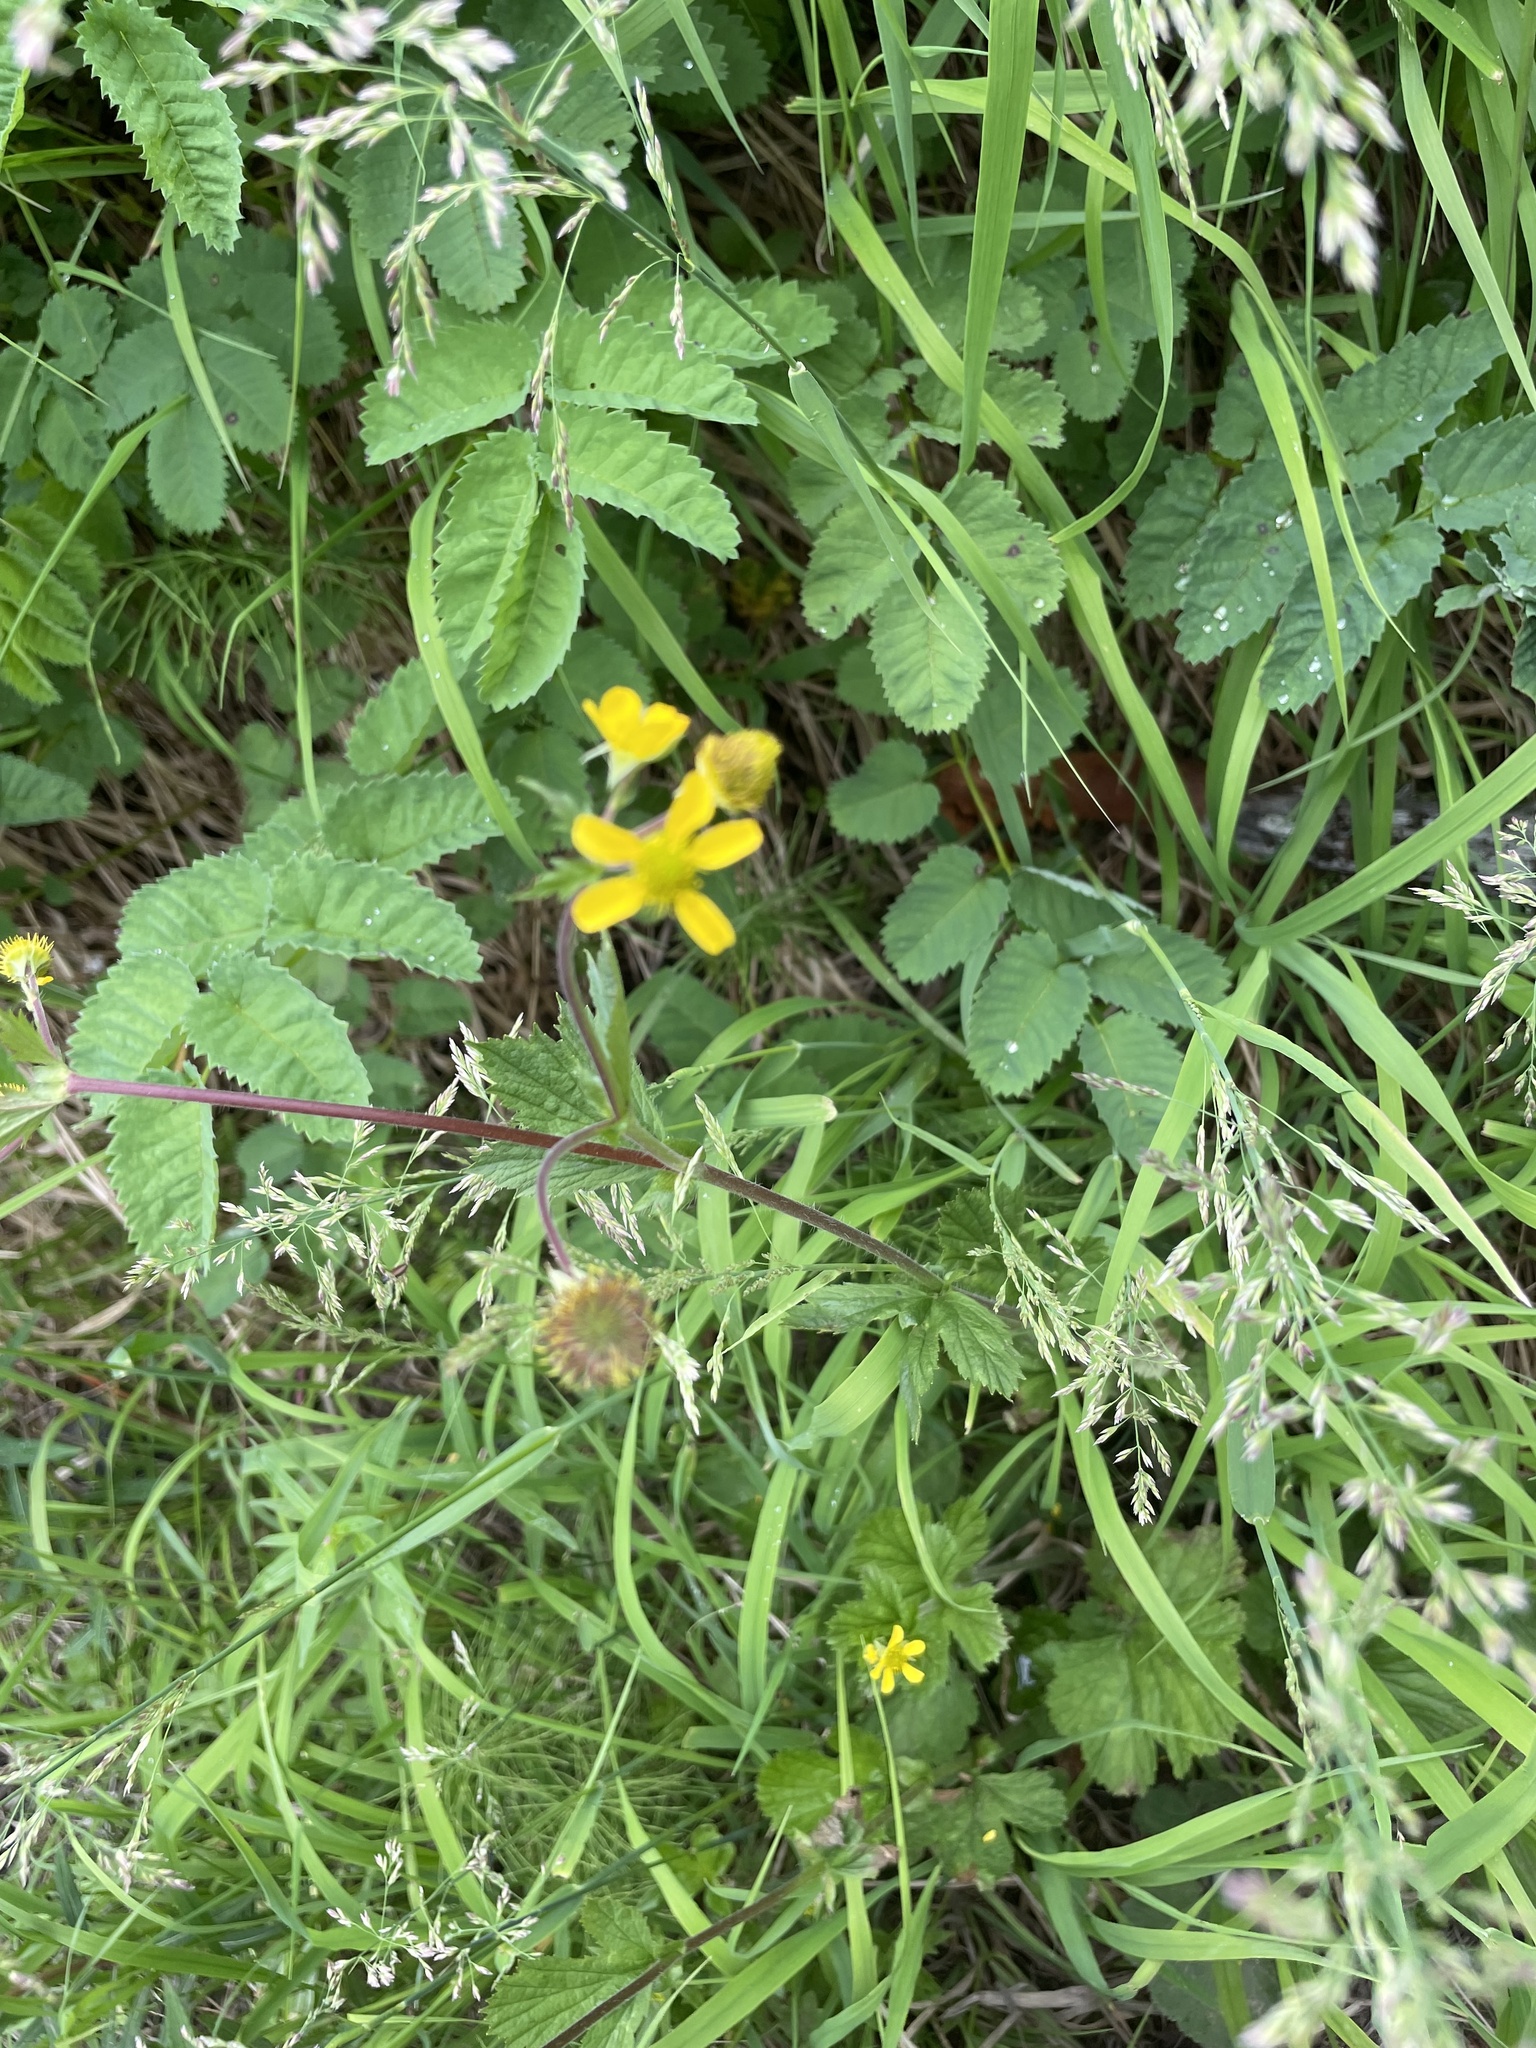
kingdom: Plantae
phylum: Tracheophyta
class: Magnoliopsida
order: Rosales
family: Rosaceae
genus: Geum
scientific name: Geum macrophyllum
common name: Large-leaved avens
